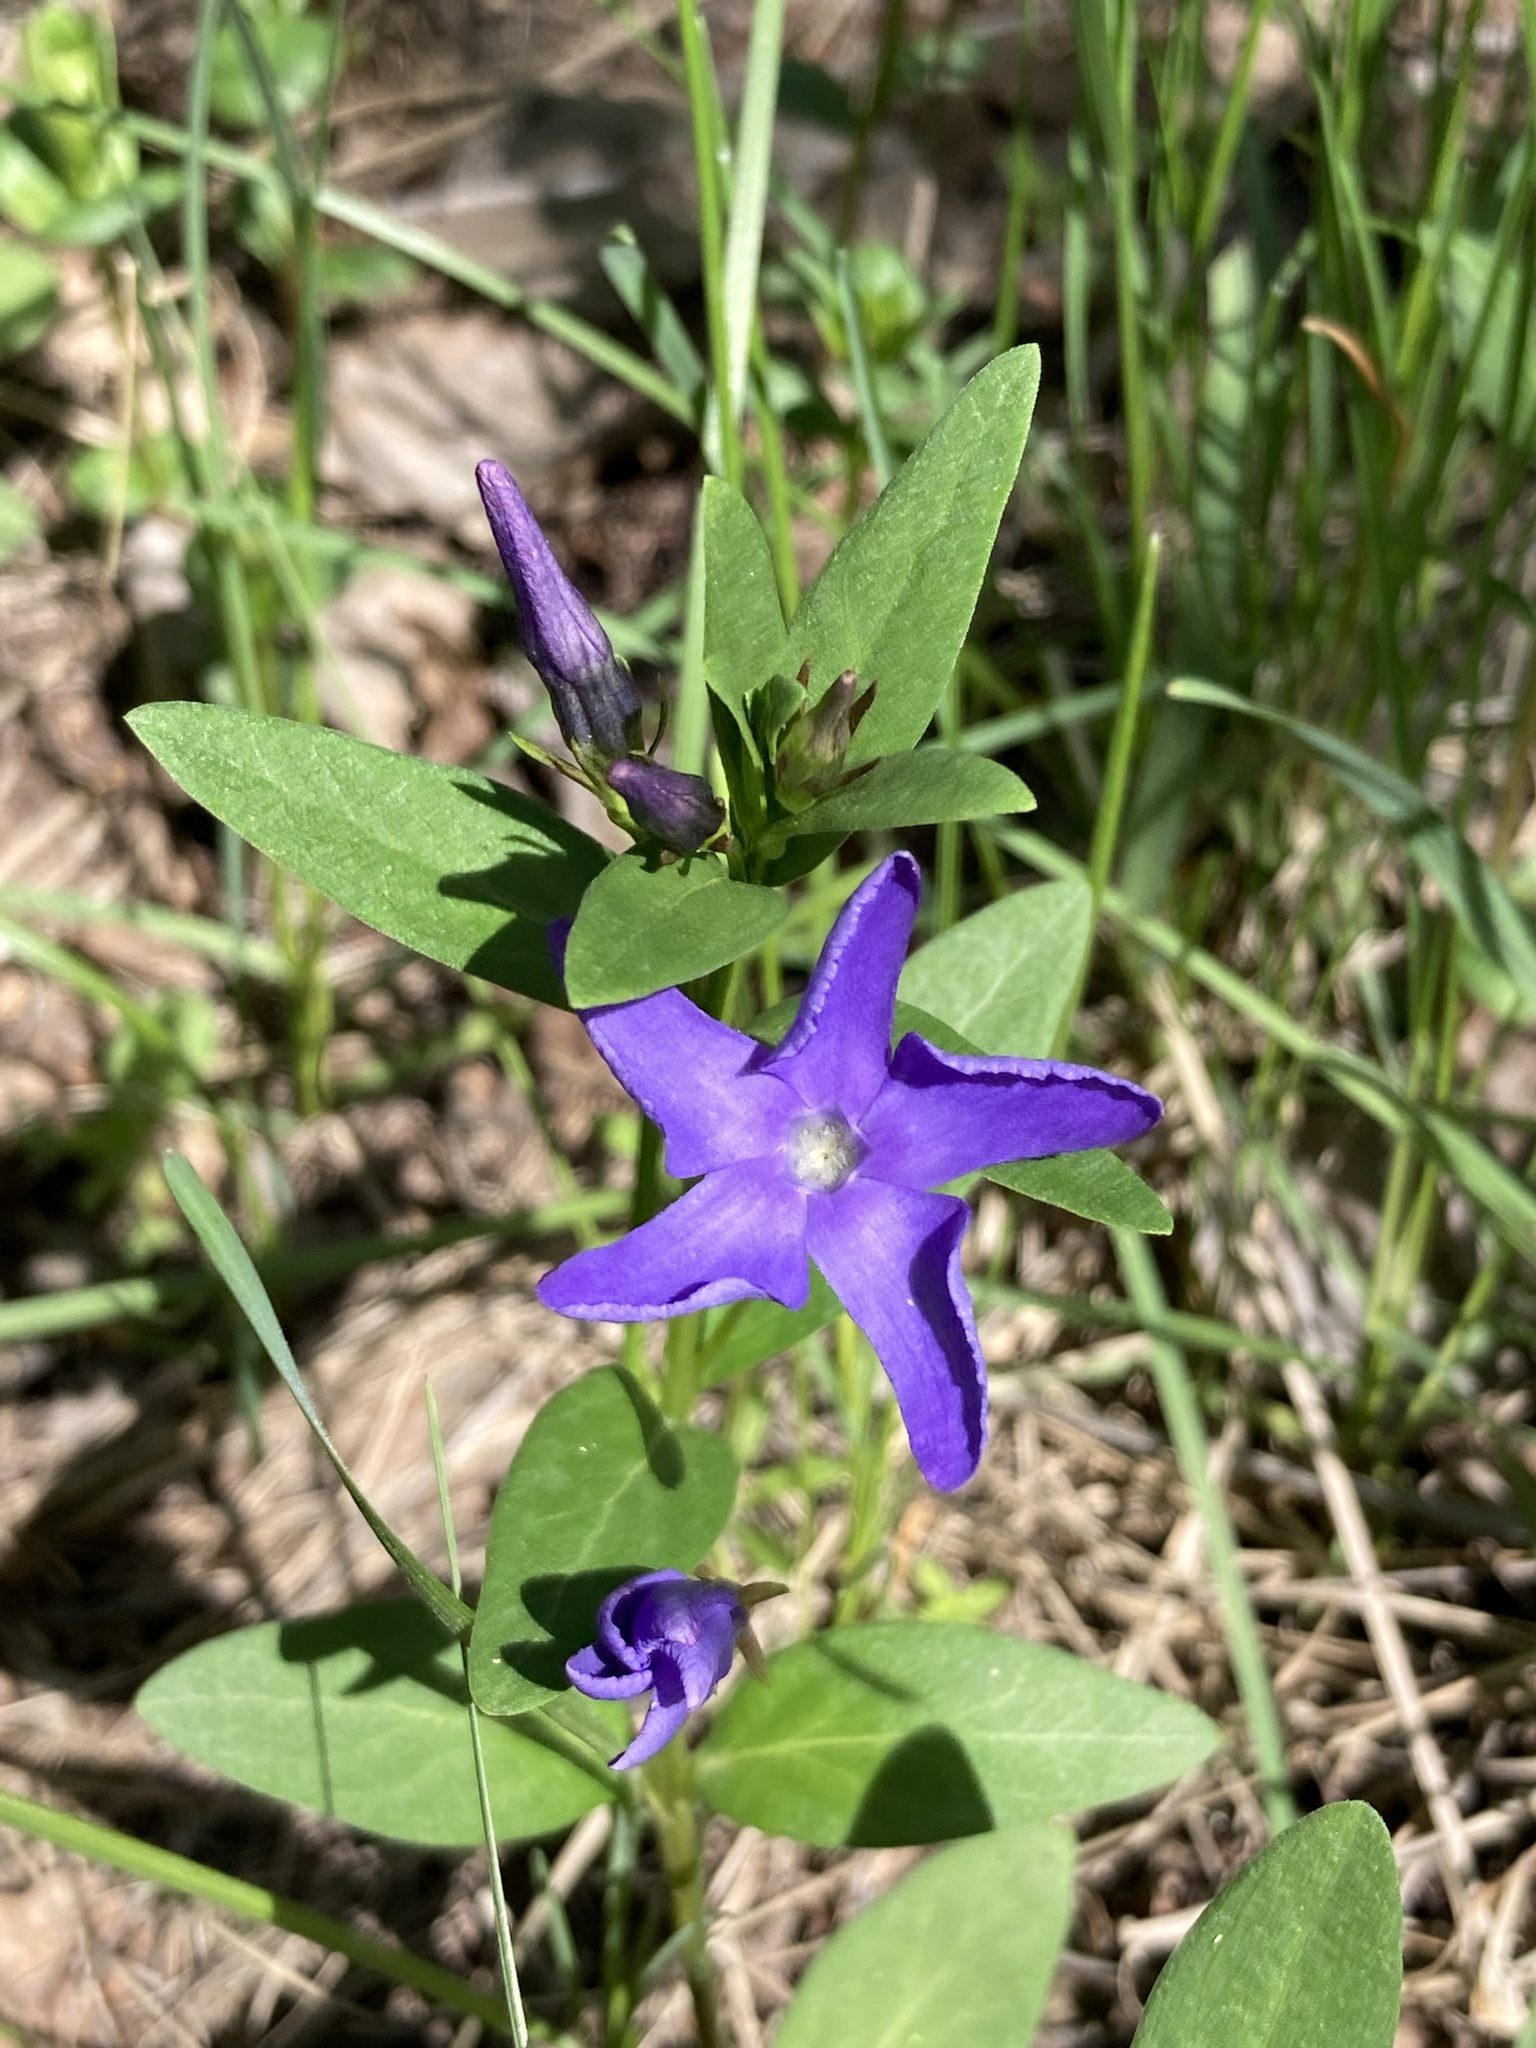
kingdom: Plantae
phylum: Tracheophyta
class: Magnoliopsida
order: Gentianales
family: Apocynaceae
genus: Vinca
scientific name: Vinca herbacea
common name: Herbaceous periwinkle
